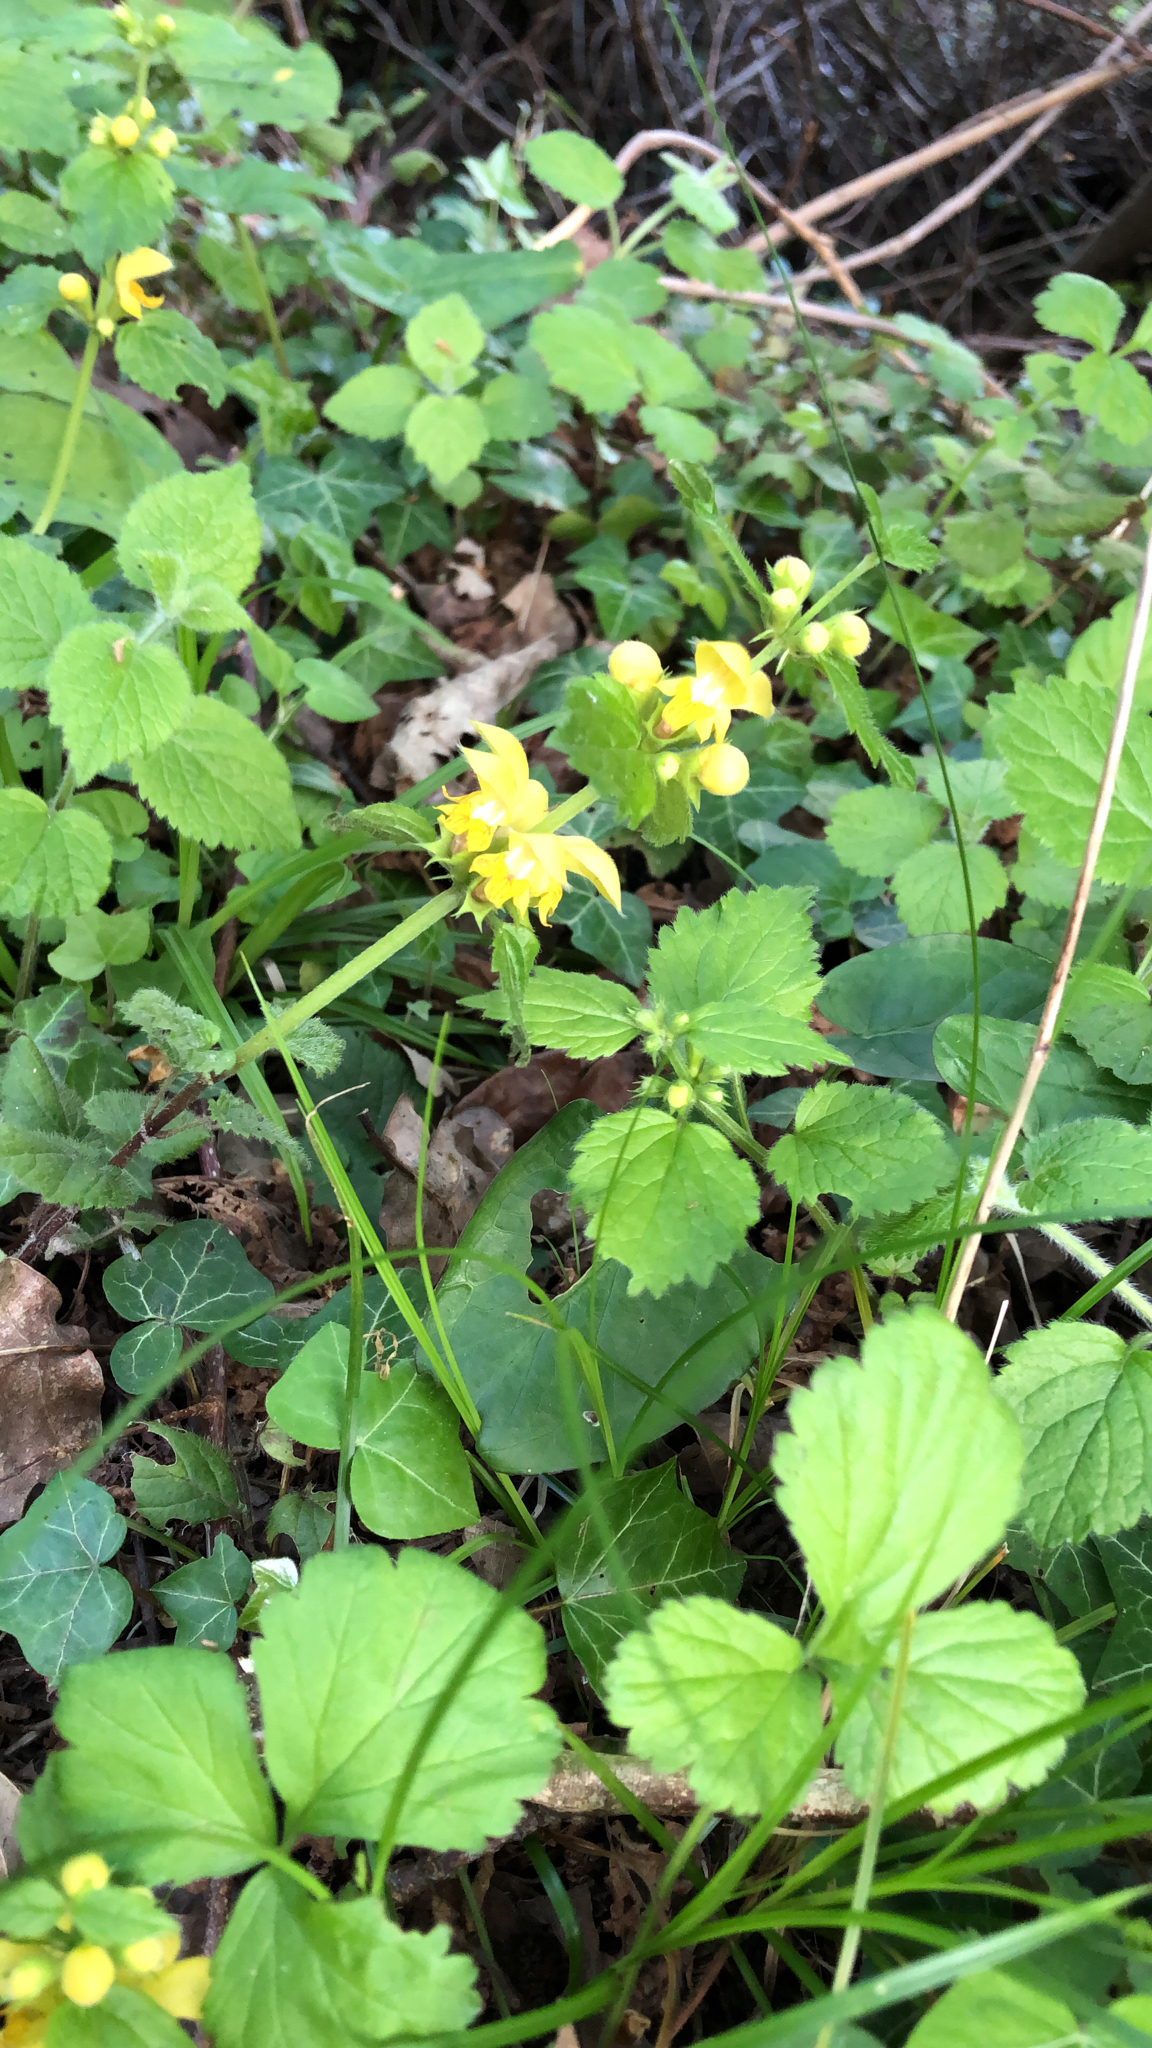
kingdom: Plantae
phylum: Tracheophyta
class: Magnoliopsida
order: Lamiales
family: Lamiaceae
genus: Lamium
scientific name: Lamium galeobdolon
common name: Yellow archangel
